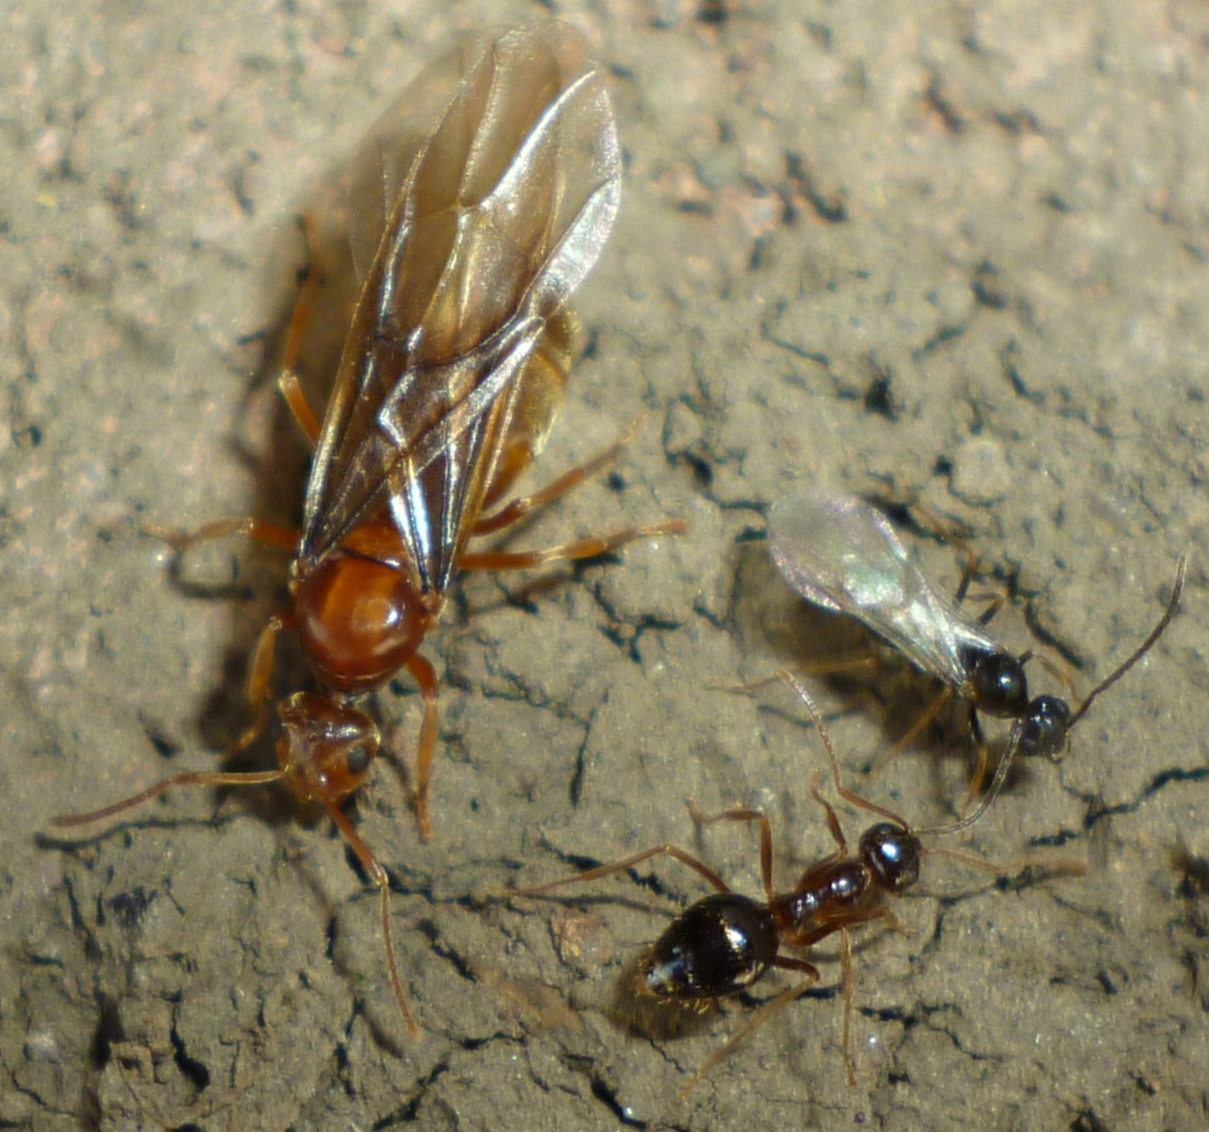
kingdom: Animalia
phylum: Arthropoda
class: Insecta
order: Hymenoptera
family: Formicidae
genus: Prenolepis
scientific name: Prenolepis imparis
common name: Small honey ant
